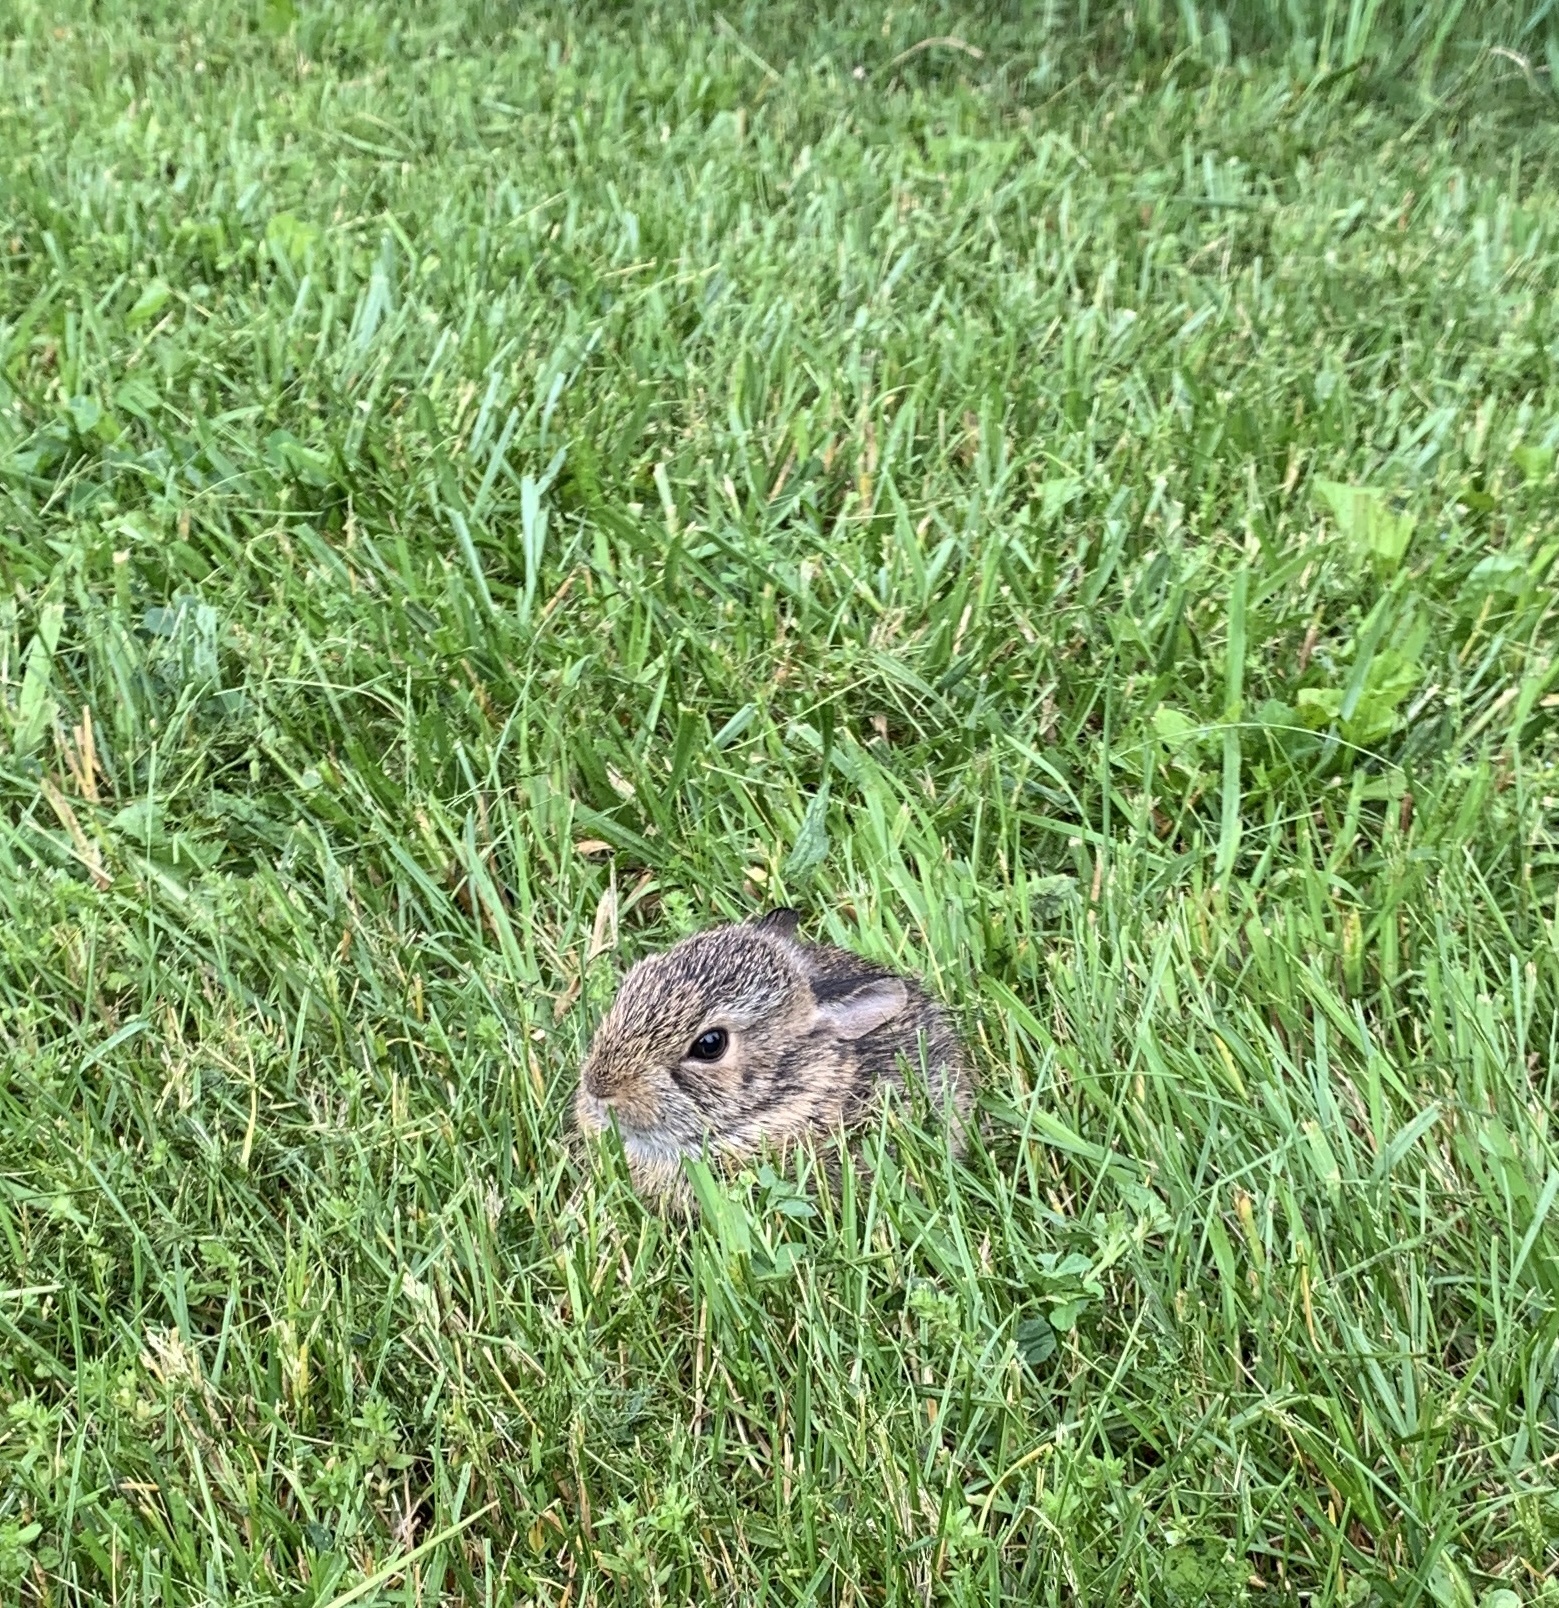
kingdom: Animalia
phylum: Chordata
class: Mammalia
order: Lagomorpha
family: Leporidae
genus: Sylvilagus
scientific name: Sylvilagus floridanus
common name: Eastern cottontail
